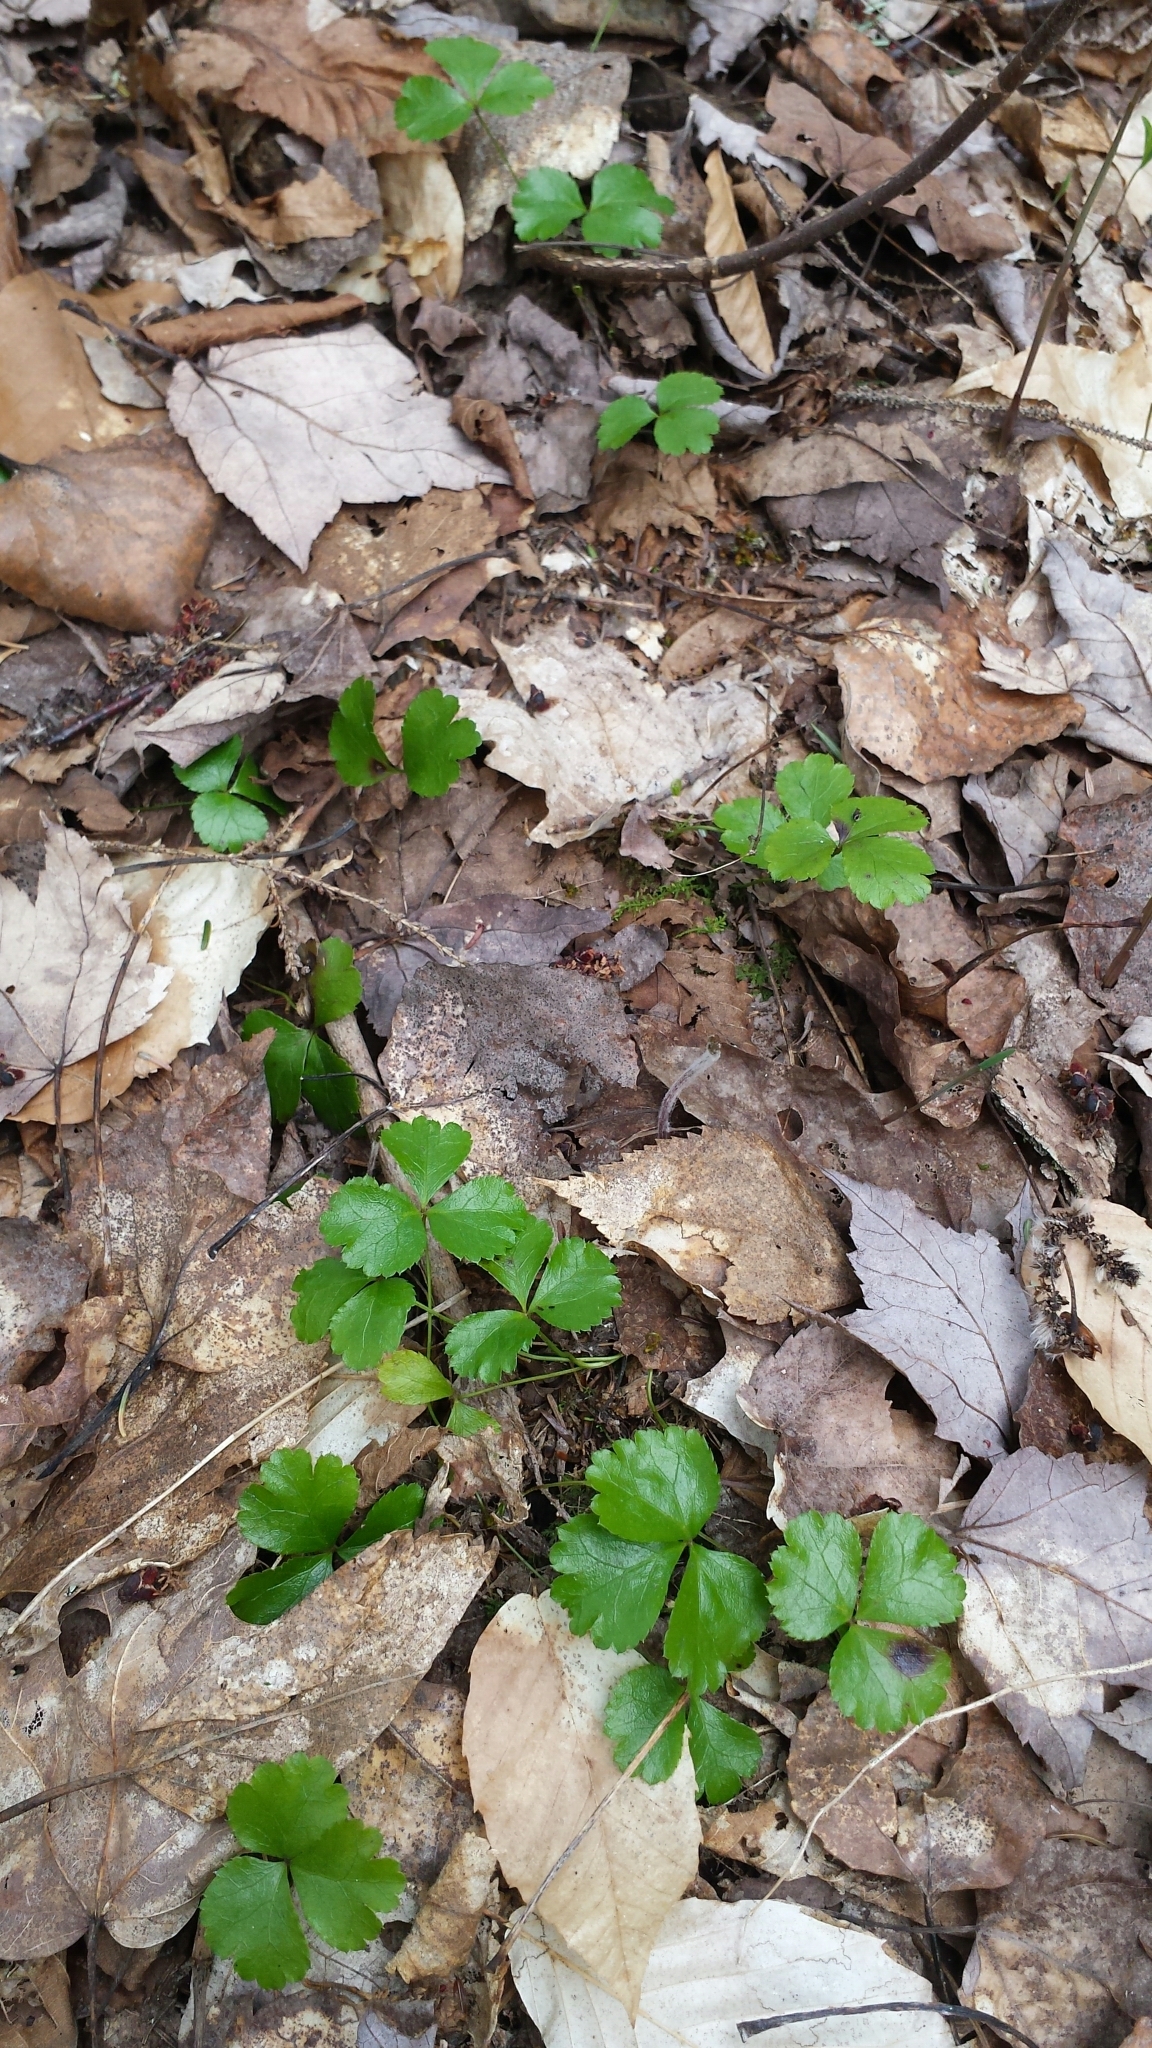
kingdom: Plantae
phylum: Tracheophyta
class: Magnoliopsida
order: Ranunculales
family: Ranunculaceae
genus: Coptis
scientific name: Coptis trifolia
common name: Canker-root
